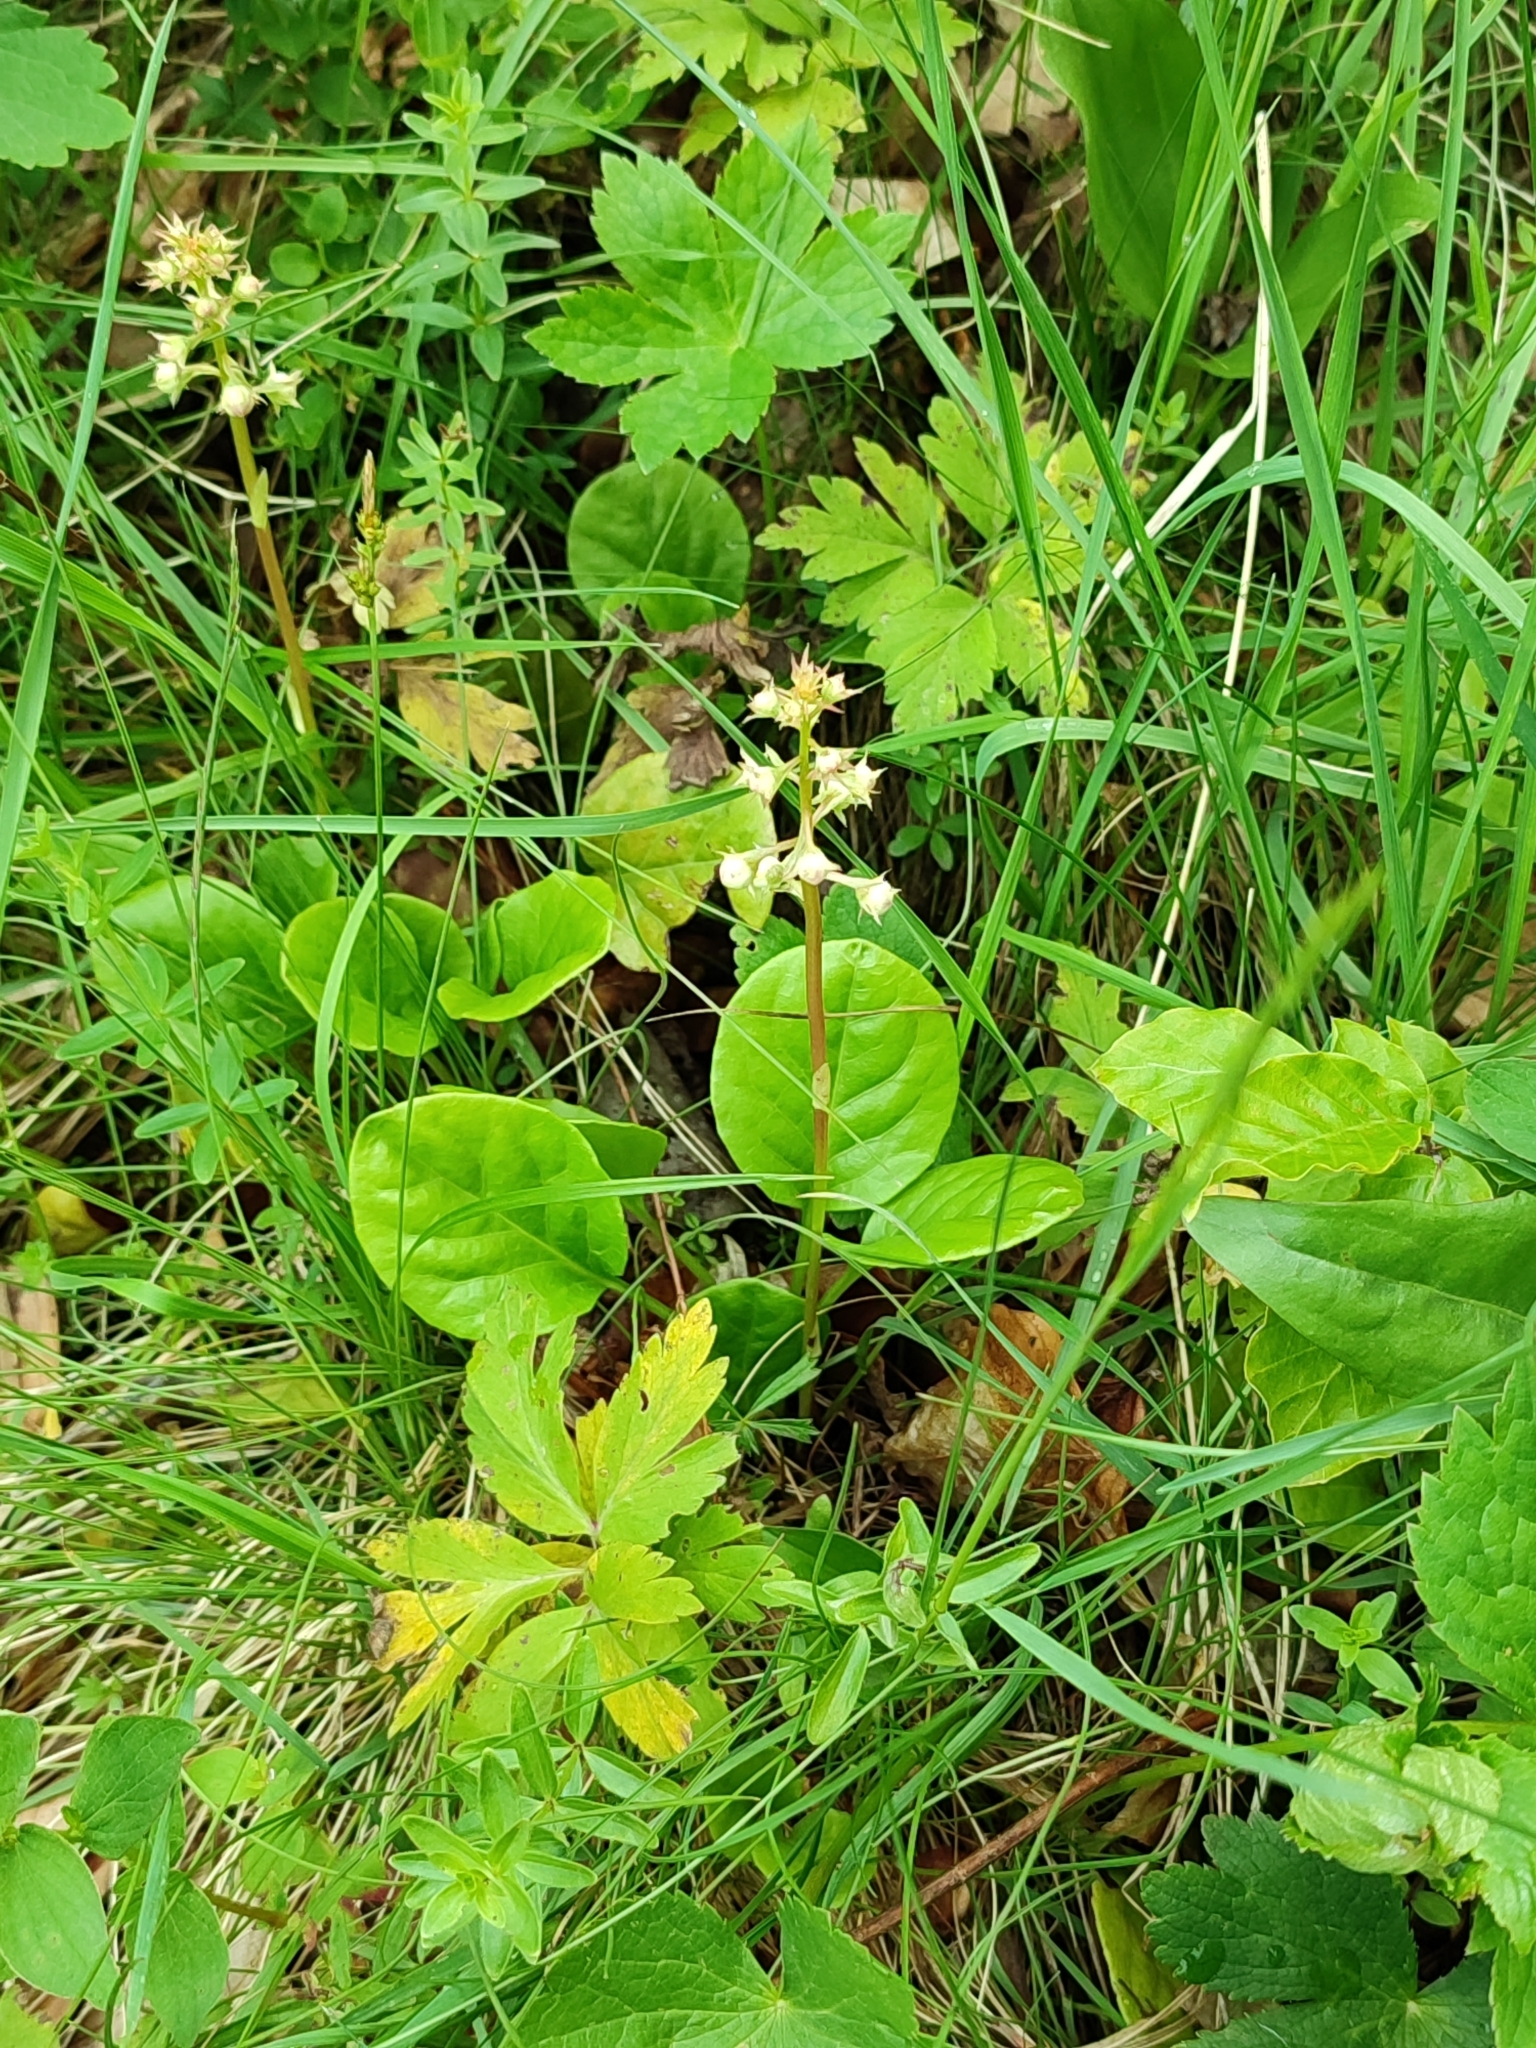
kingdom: Plantae
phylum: Tracheophyta
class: Magnoliopsida
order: Ericales
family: Ericaceae
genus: Pyrola
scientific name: Pyrola rotundifolia
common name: Round-leaved wintergreen
